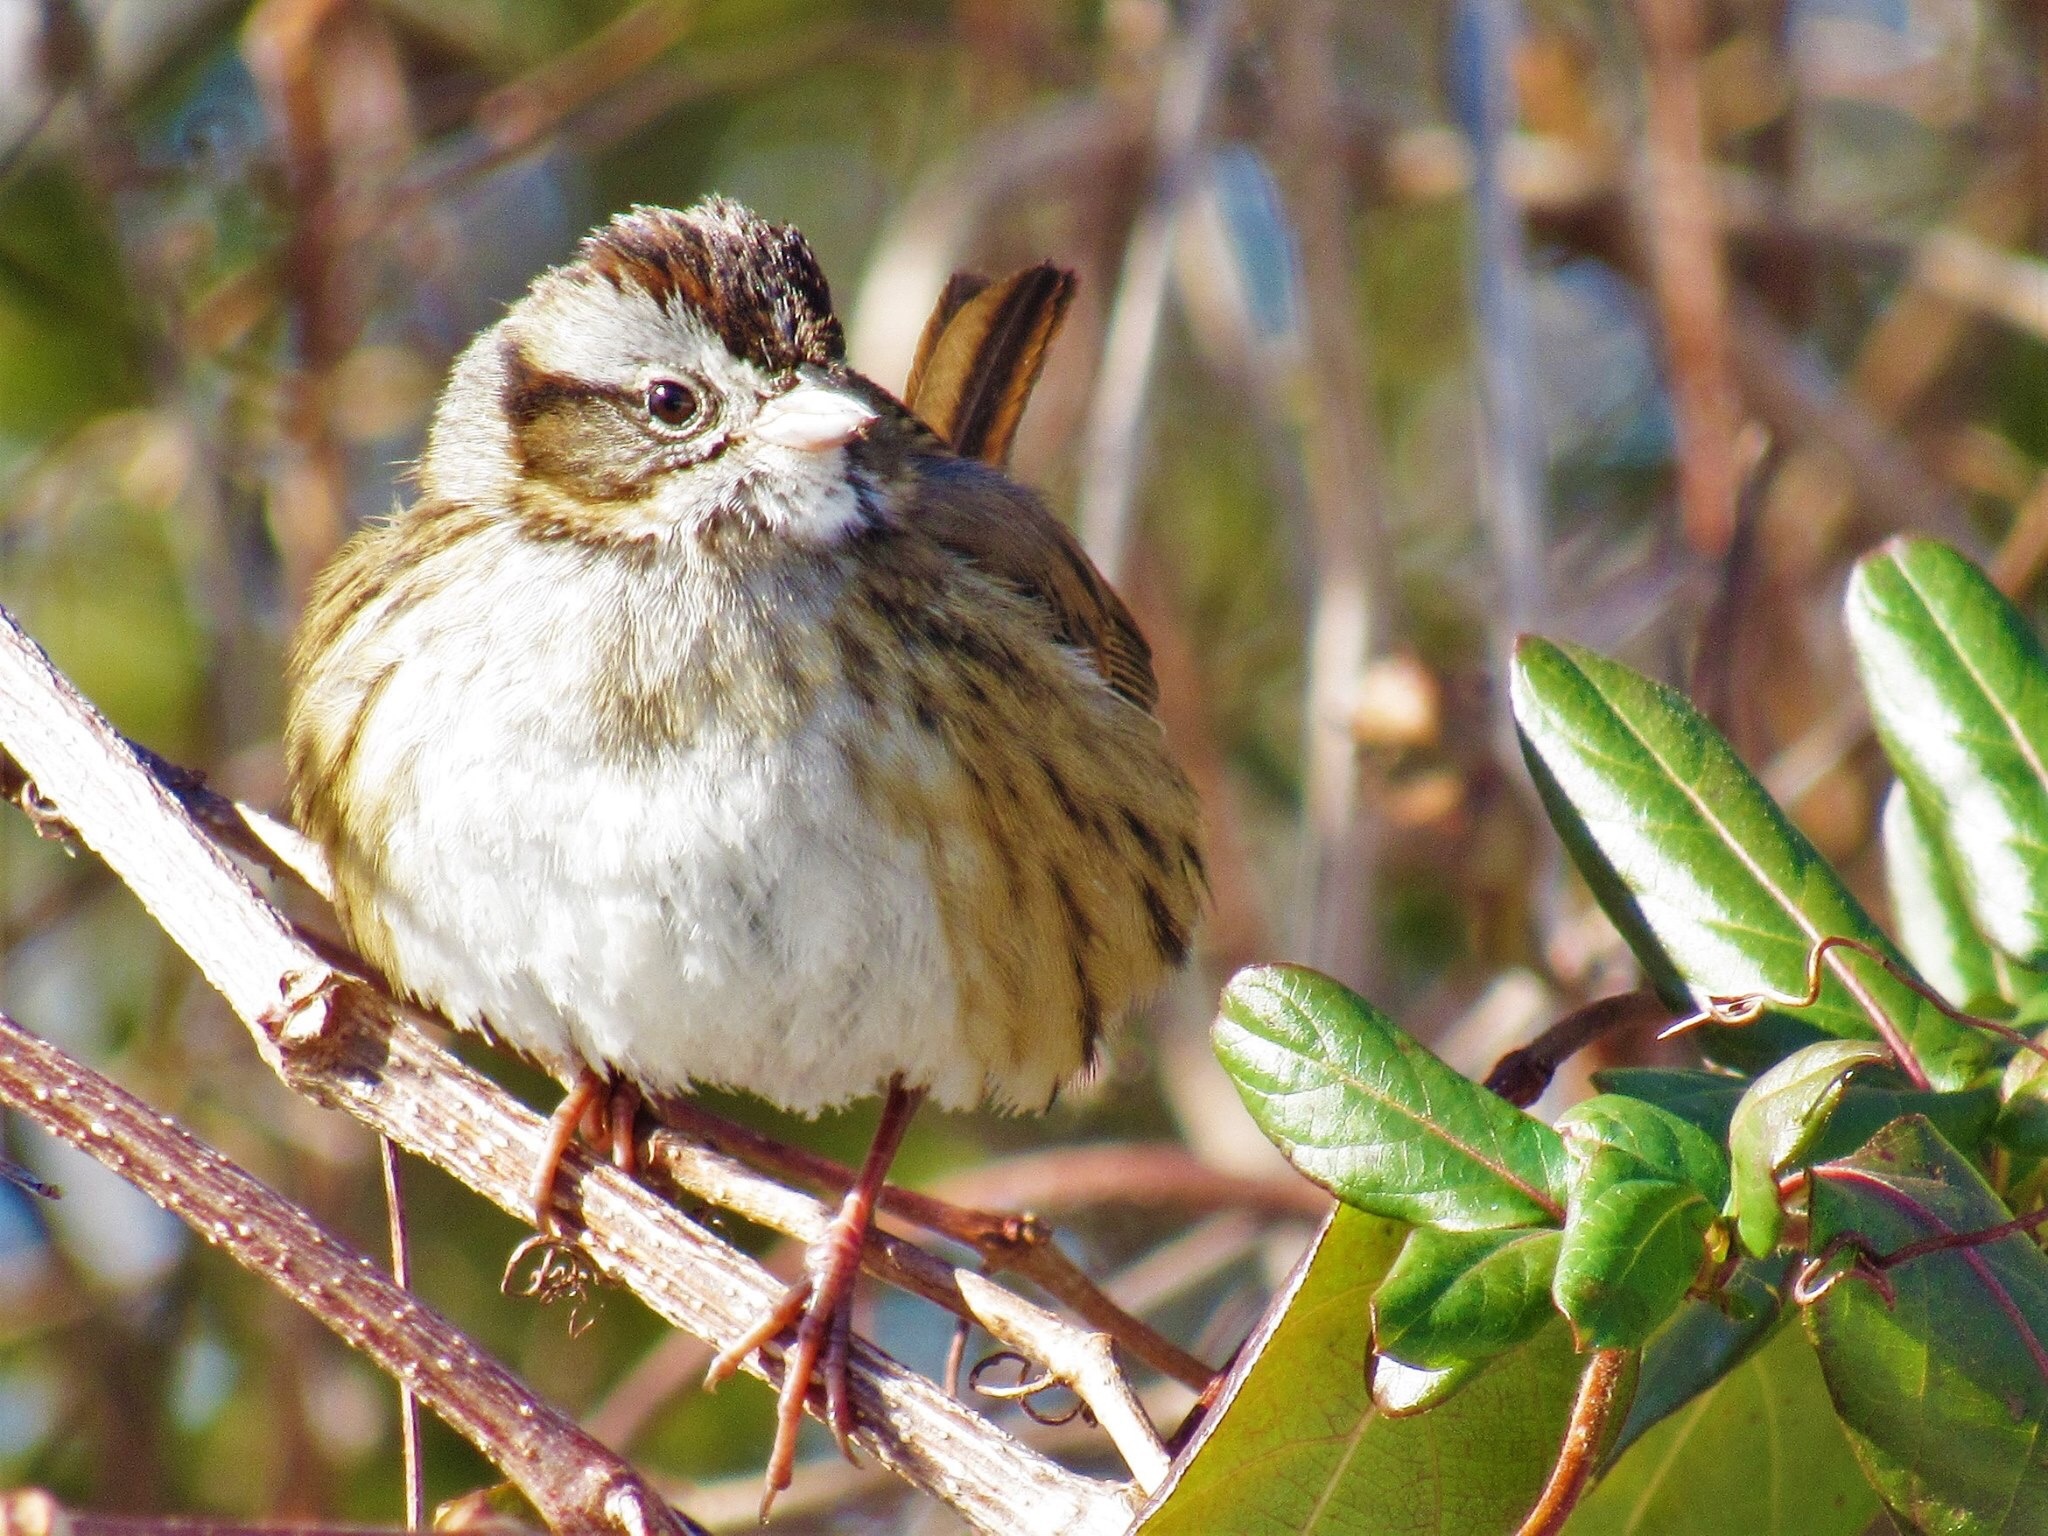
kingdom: Animalia
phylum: Chordata
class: Aves
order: Passeriformes
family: Passerellidae
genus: Melospiza
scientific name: Melospiza georgiana
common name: Swamp sparrow
